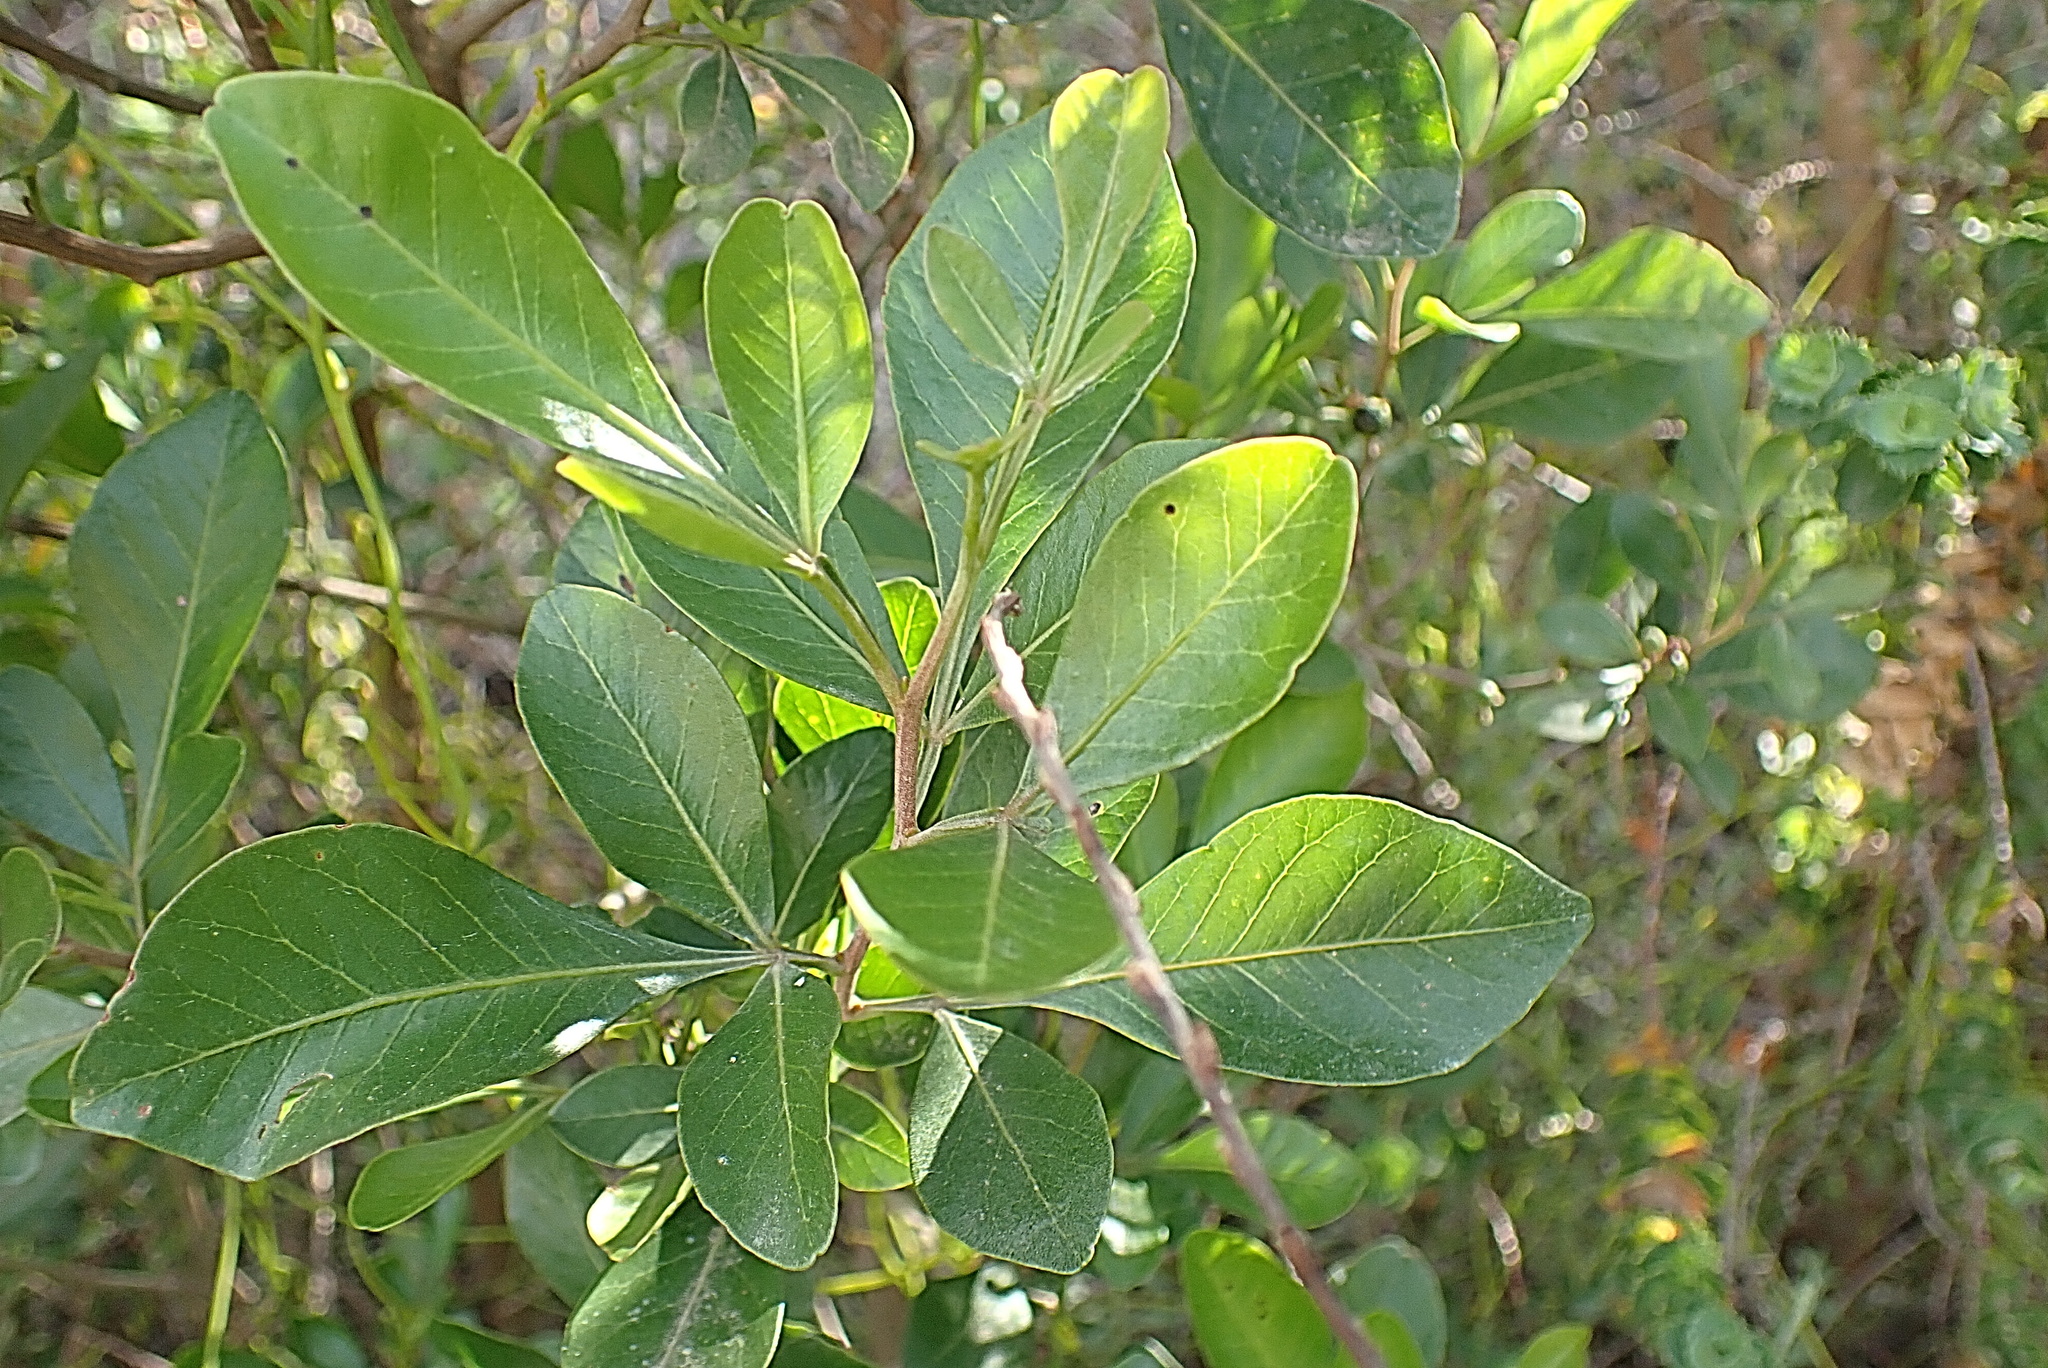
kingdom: Plantae
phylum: Tracheophyta
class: Magnoliopsida
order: Sapindales
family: Anacardiaceae
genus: Searsia
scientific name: Searsia lucida
